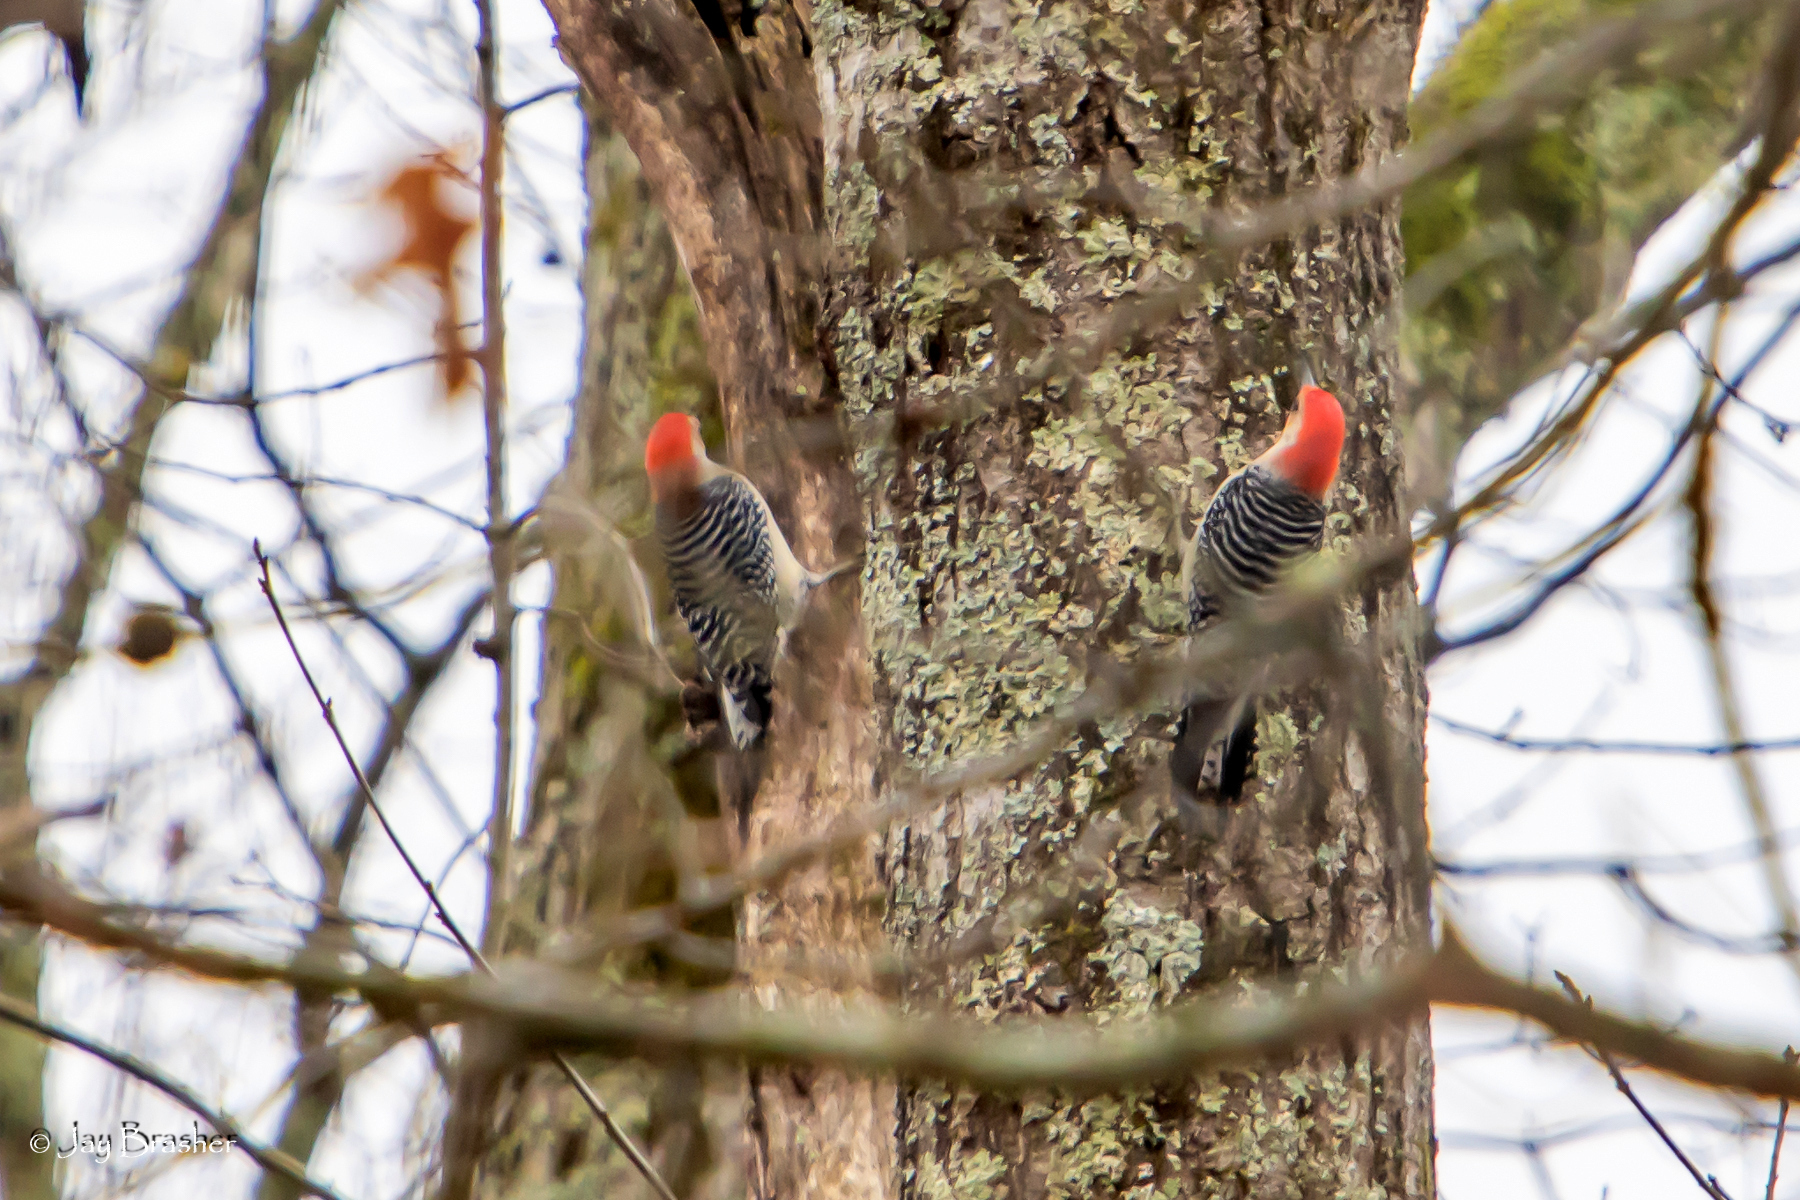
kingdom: Animalia
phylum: Chordata
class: Aves
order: Piciformes
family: Picidae
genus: Melanerpes
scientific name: Melanerpes carolinus
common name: Red-bellied woodpecker
